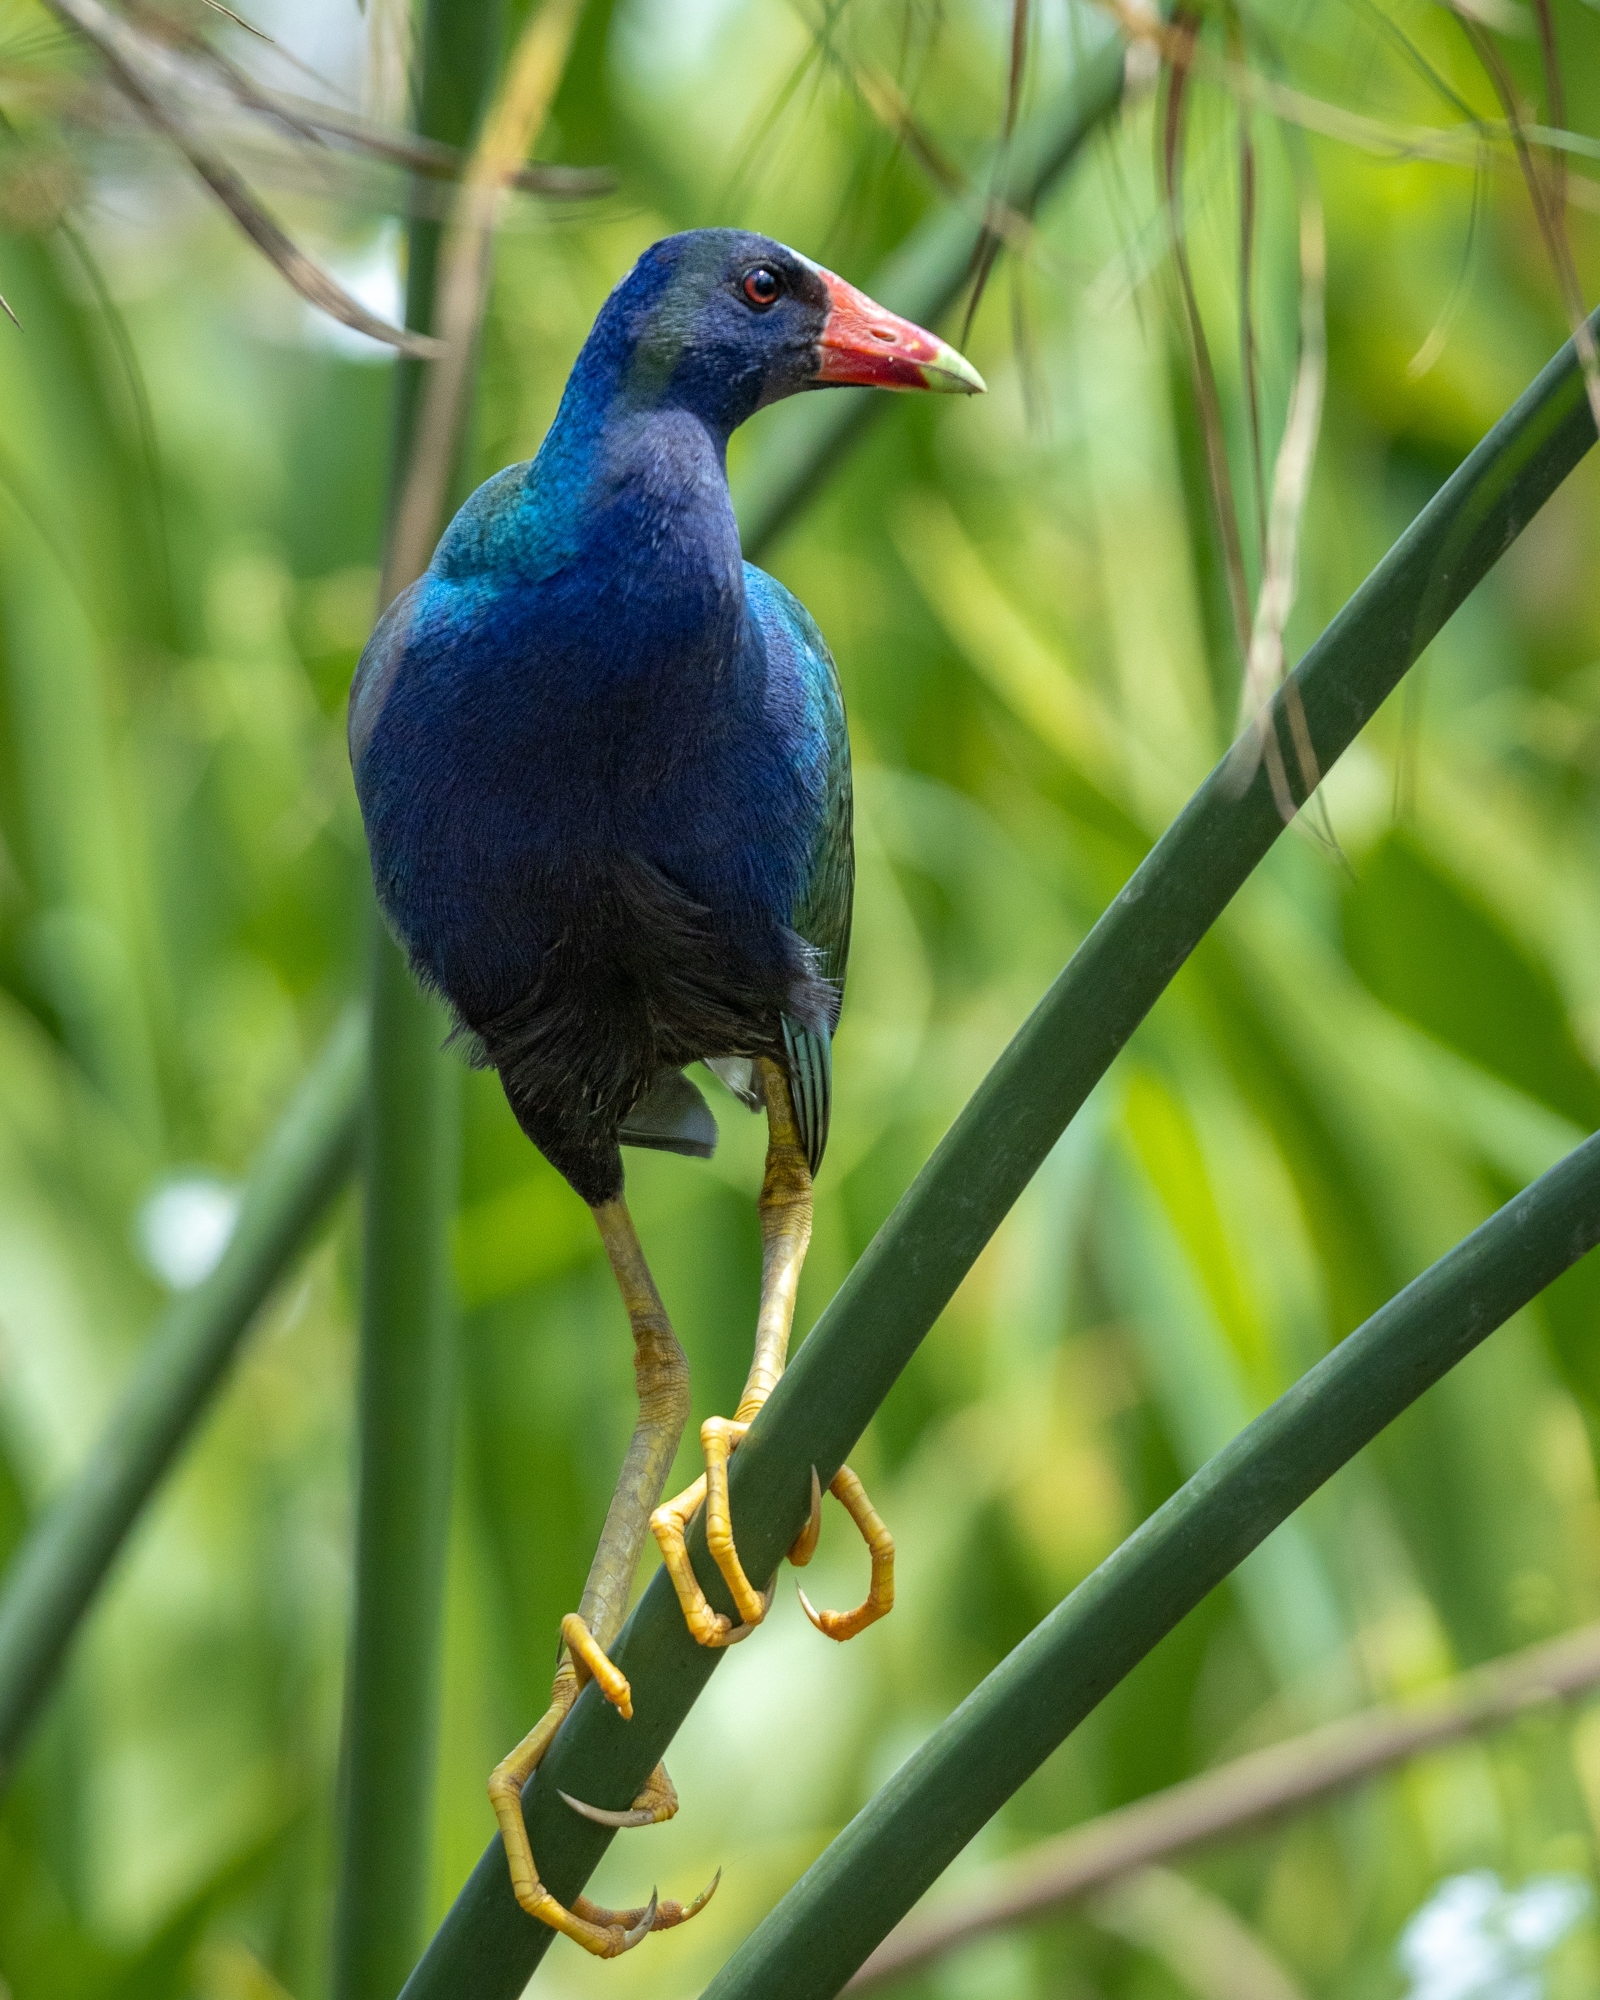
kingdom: Animalia
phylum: Chordata
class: Aves
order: Gruiformes
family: Rallidae
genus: Porphyrio
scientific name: Porphyrio martinica
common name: Purple gallinule
